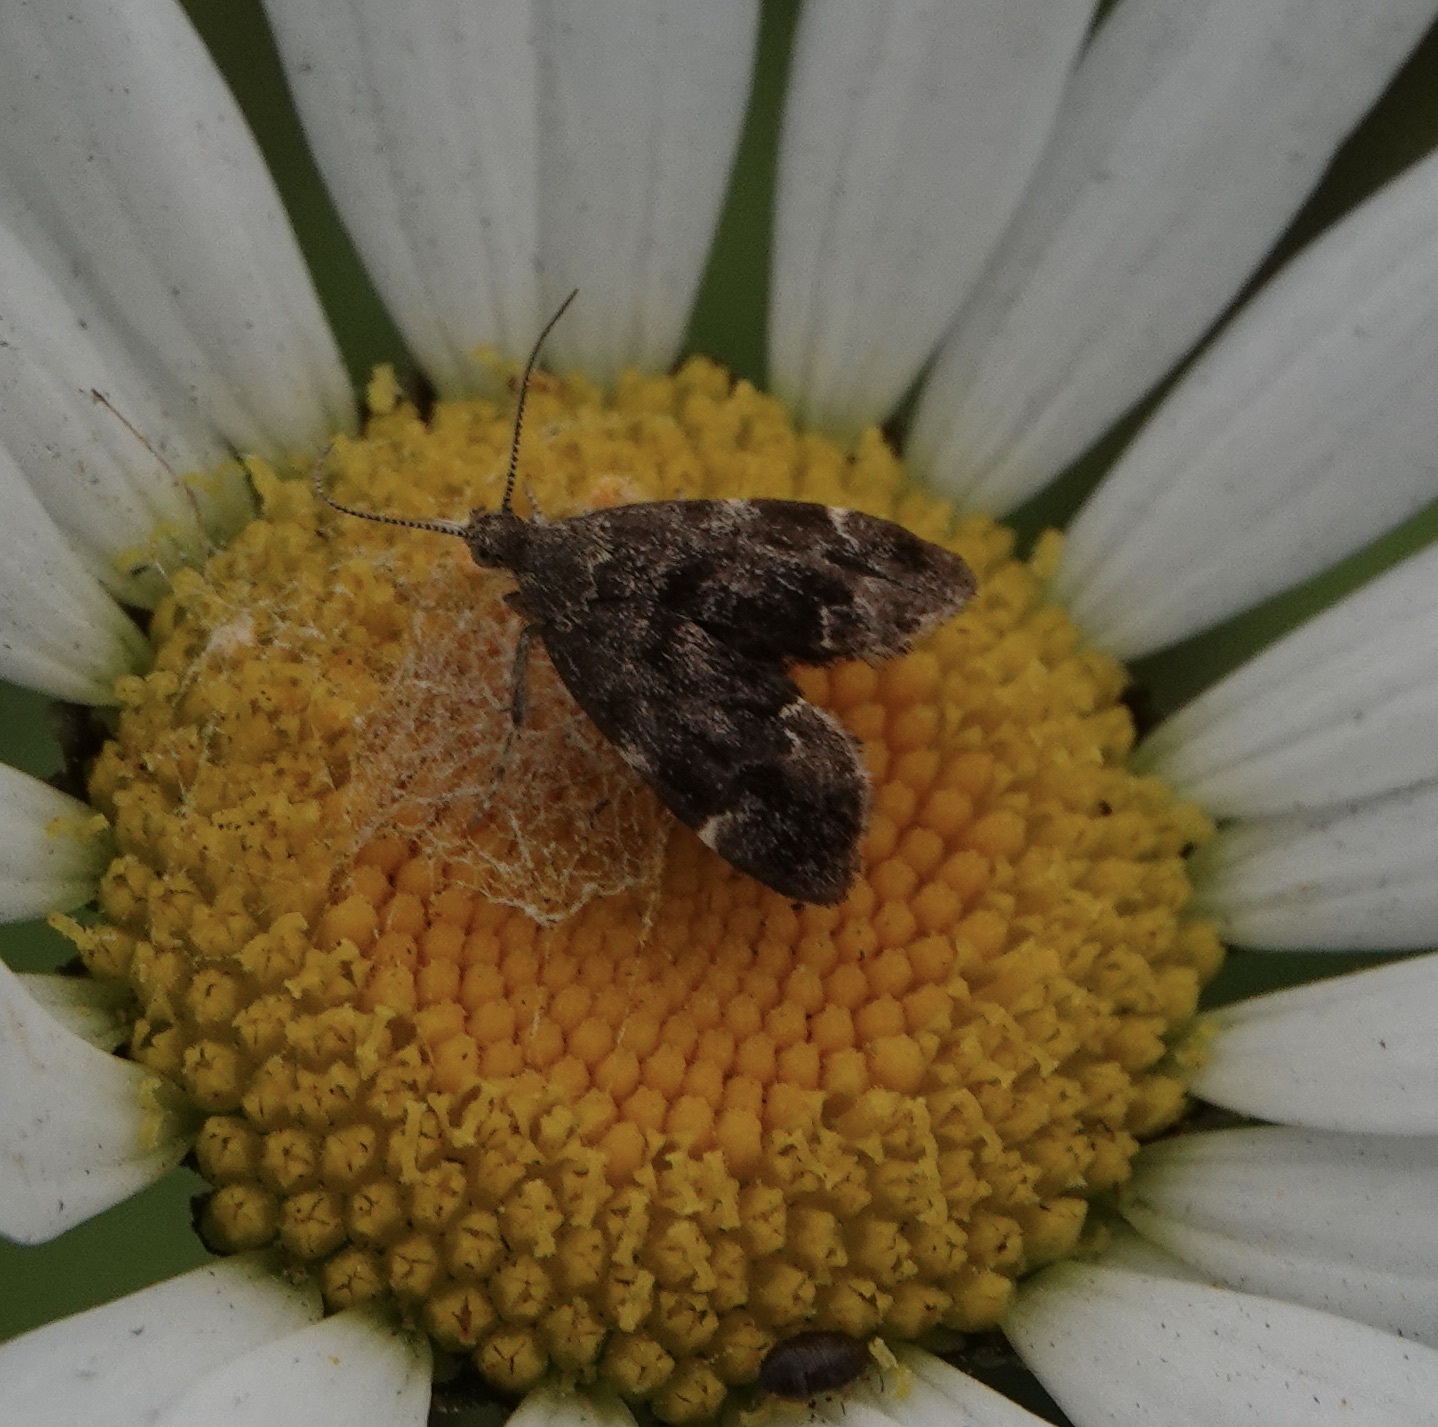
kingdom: Animalia
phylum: Arthropoda
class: Insecta
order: Lepidoptera
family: Choreutidae
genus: Anthophila
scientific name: Anthophila fabriciana
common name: Nettle-tap
